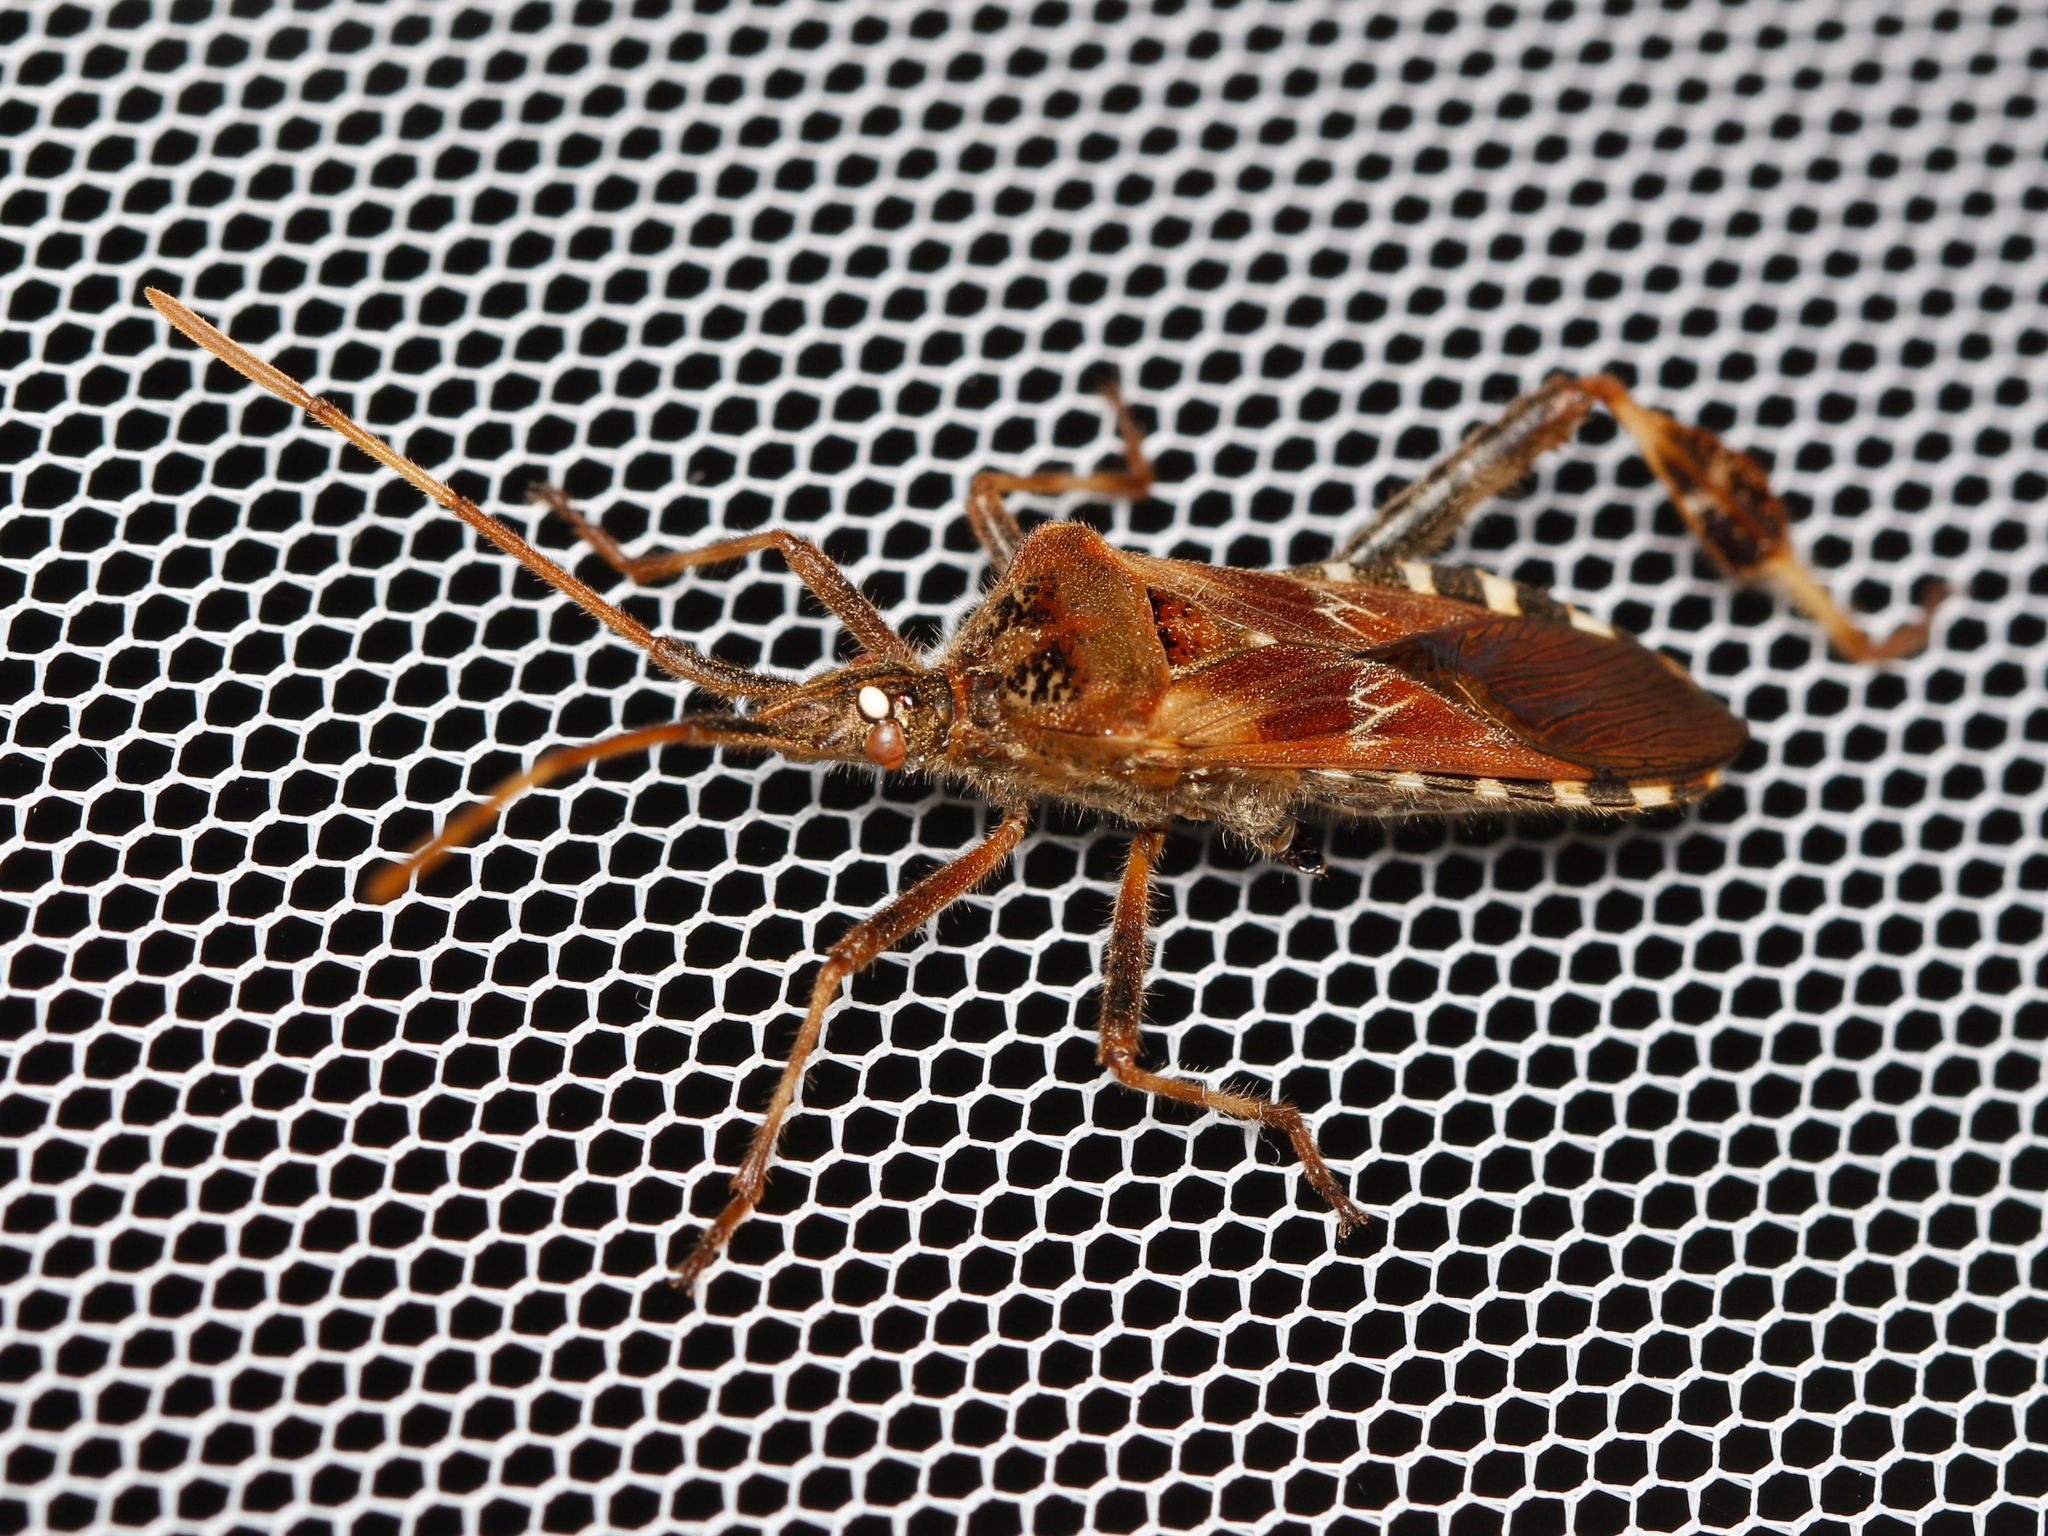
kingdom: Animalia
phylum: Arthropoda
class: Insecta
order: Hemiptera
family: Coreidae
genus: Leptoglossus
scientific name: Leptoglossus occidentalis
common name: Western conifer-seed bug
